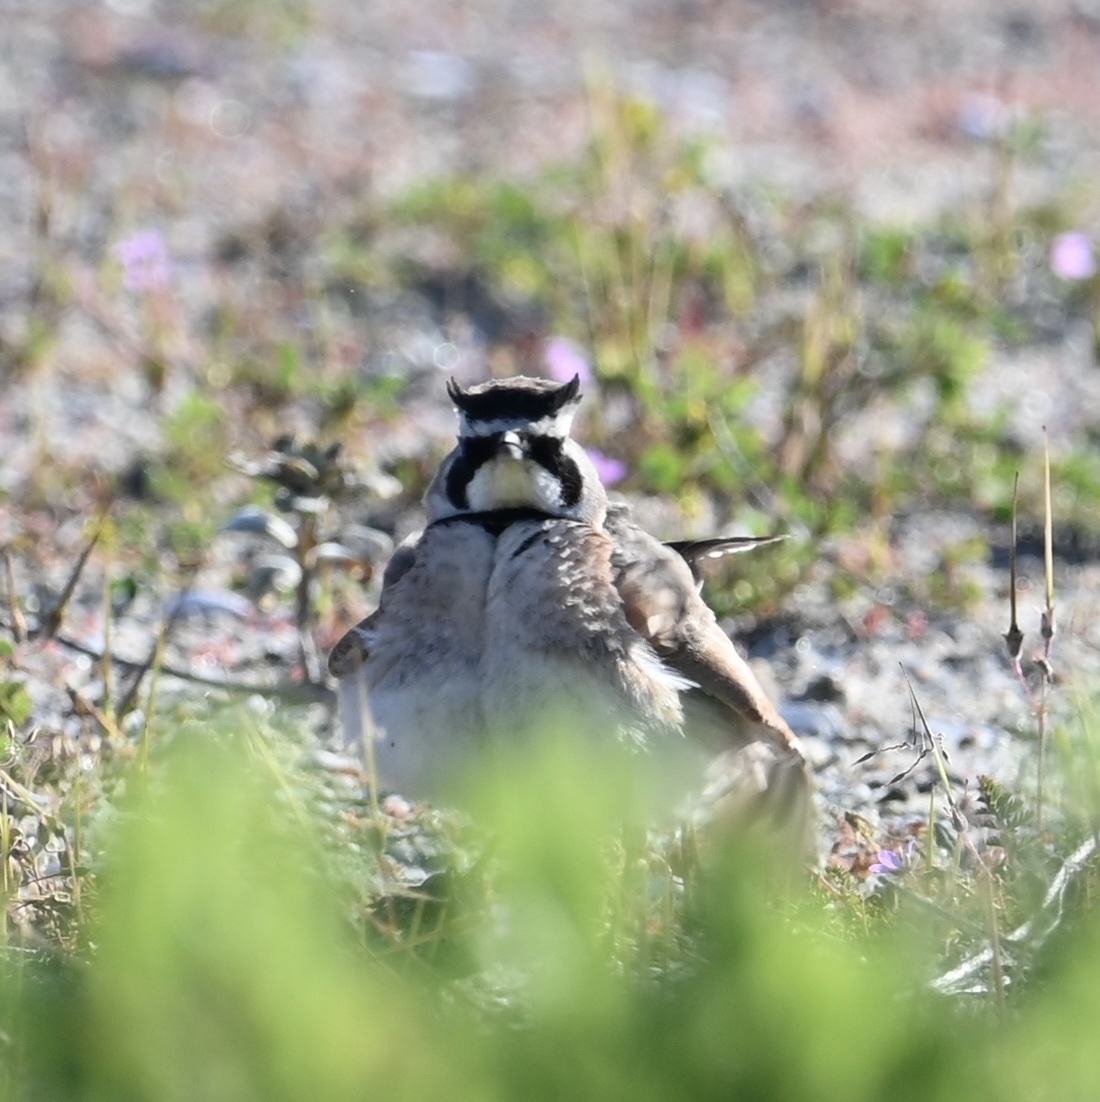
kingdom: Animalia
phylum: Chordata
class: Aves
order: Passeriformes
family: Alaudidae
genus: Eremophila
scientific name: Eremophila alpestris
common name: Horned lark
